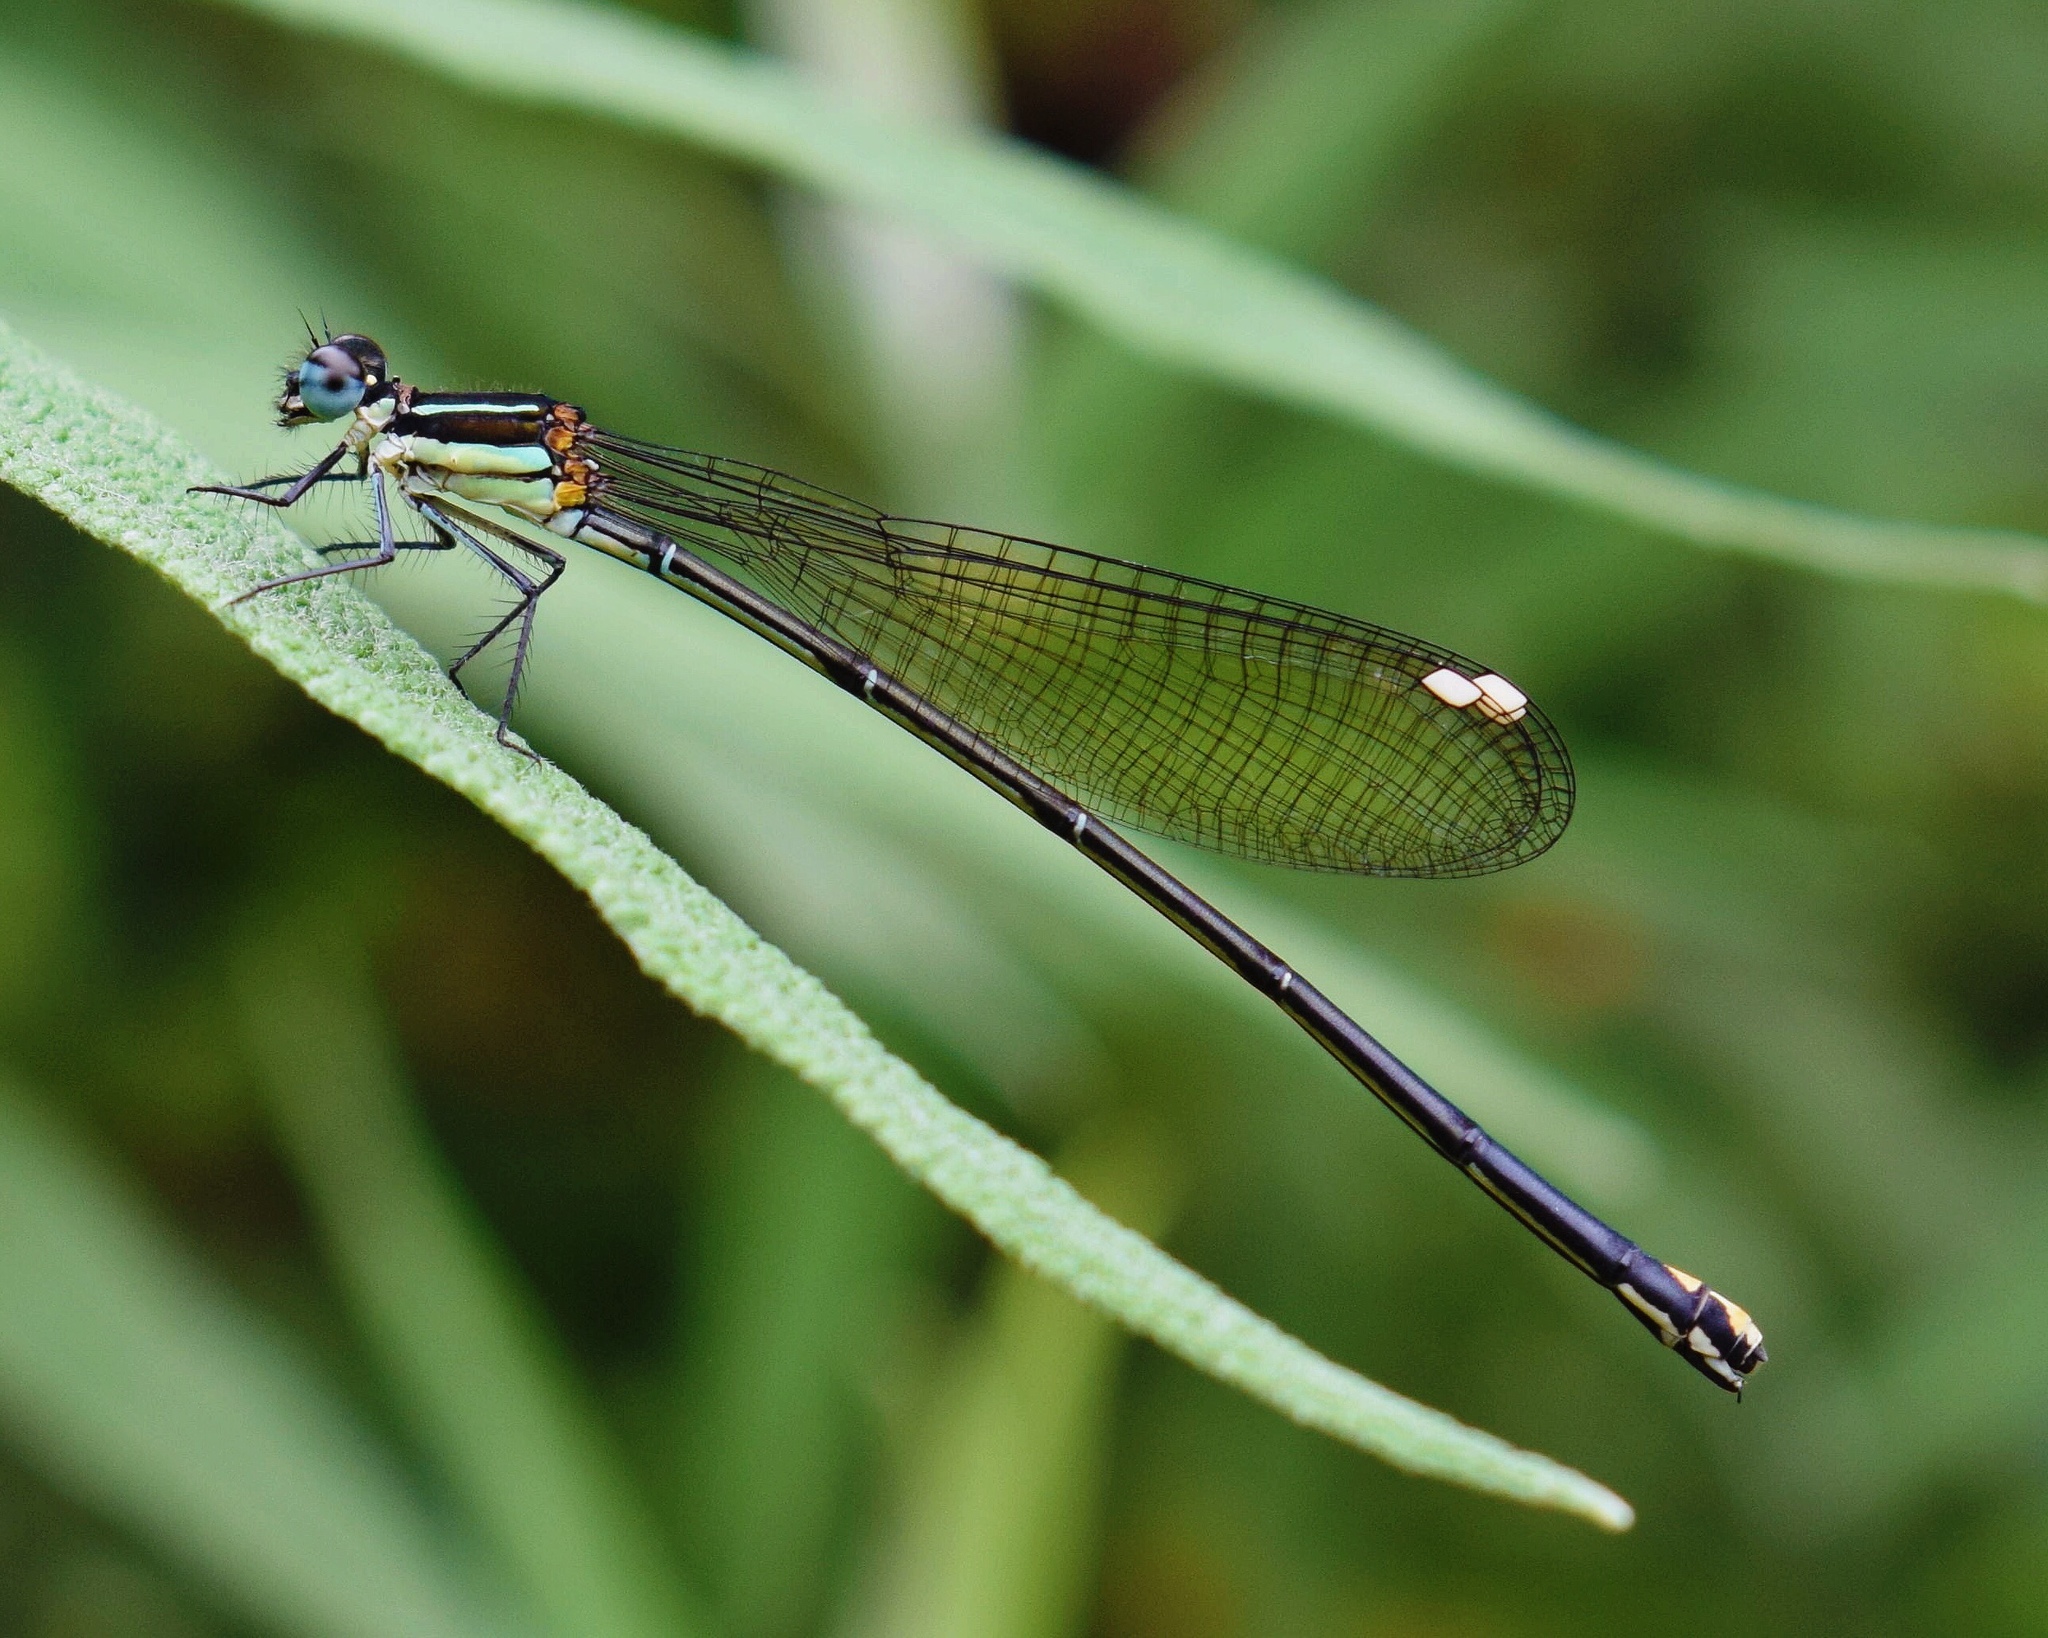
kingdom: Animalia
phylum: Arthropoda
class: Insecta
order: Odonata
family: Platycnemididae
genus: Allocnemis
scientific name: Allocnemis leucosticta
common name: Goldtail
